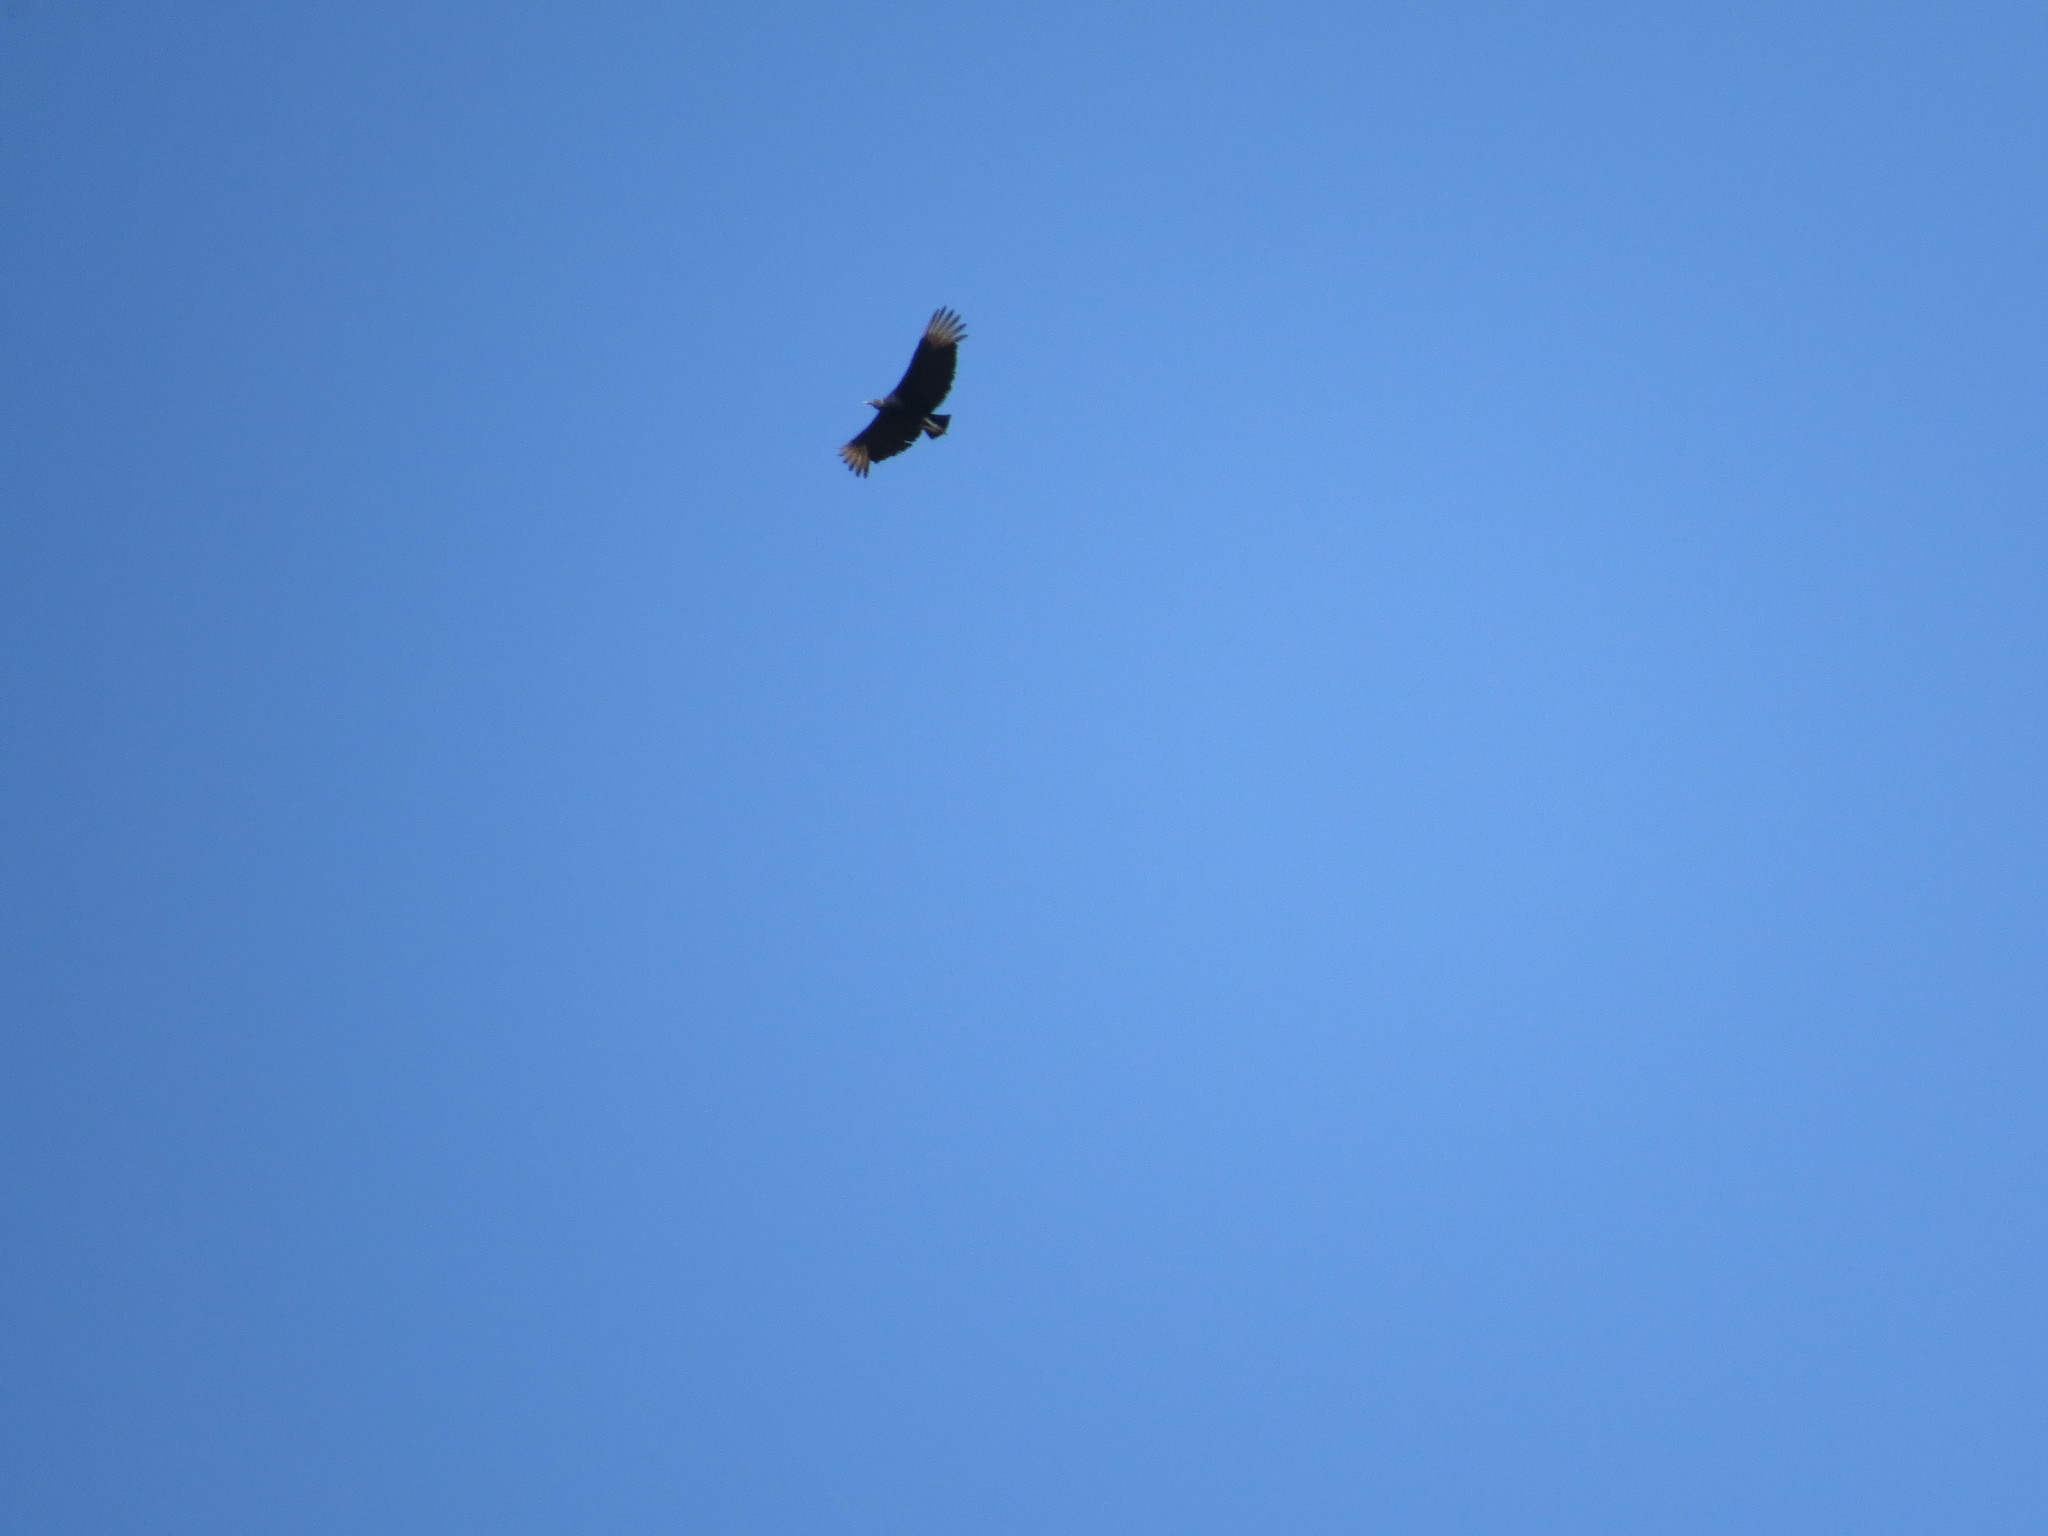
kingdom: Animalia
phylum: Chordata
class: Aves
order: Accipitriformes
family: Cathartidae
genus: Coragyps
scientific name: Coragyps atratus
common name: Black vulture
